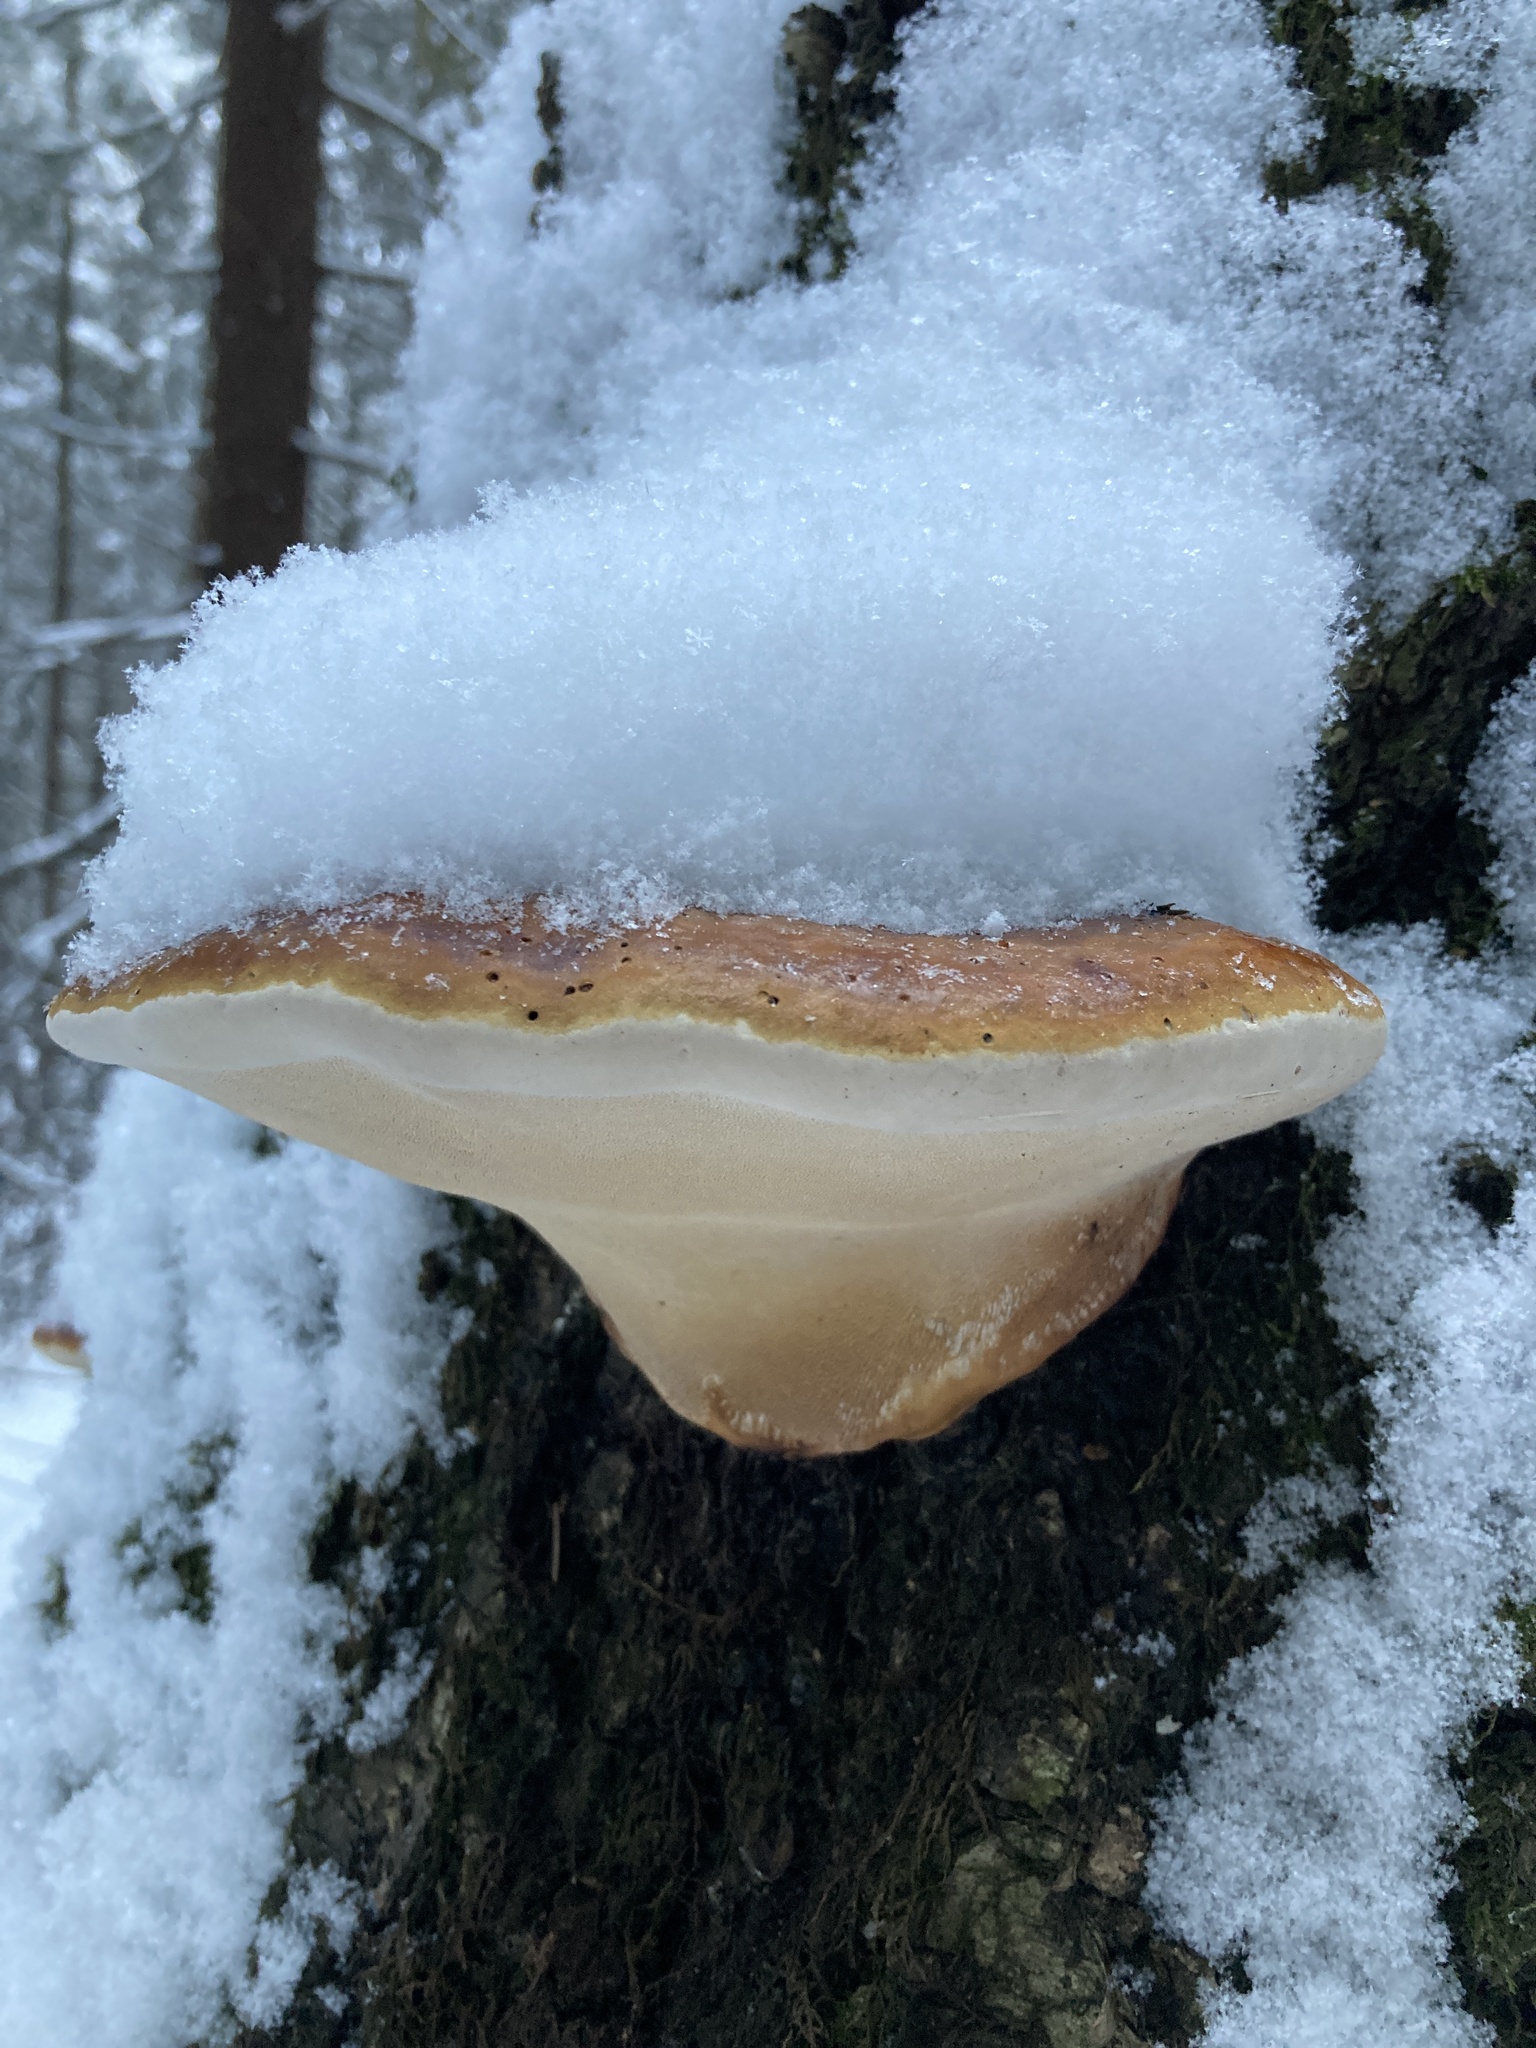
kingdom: Fungi
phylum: Basidiomycota
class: Agaricomycetes
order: Polyporales
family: Fomitopsidaceae
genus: Fomitopsis
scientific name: Fomitopsis pinicola
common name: Red-belted bracket
